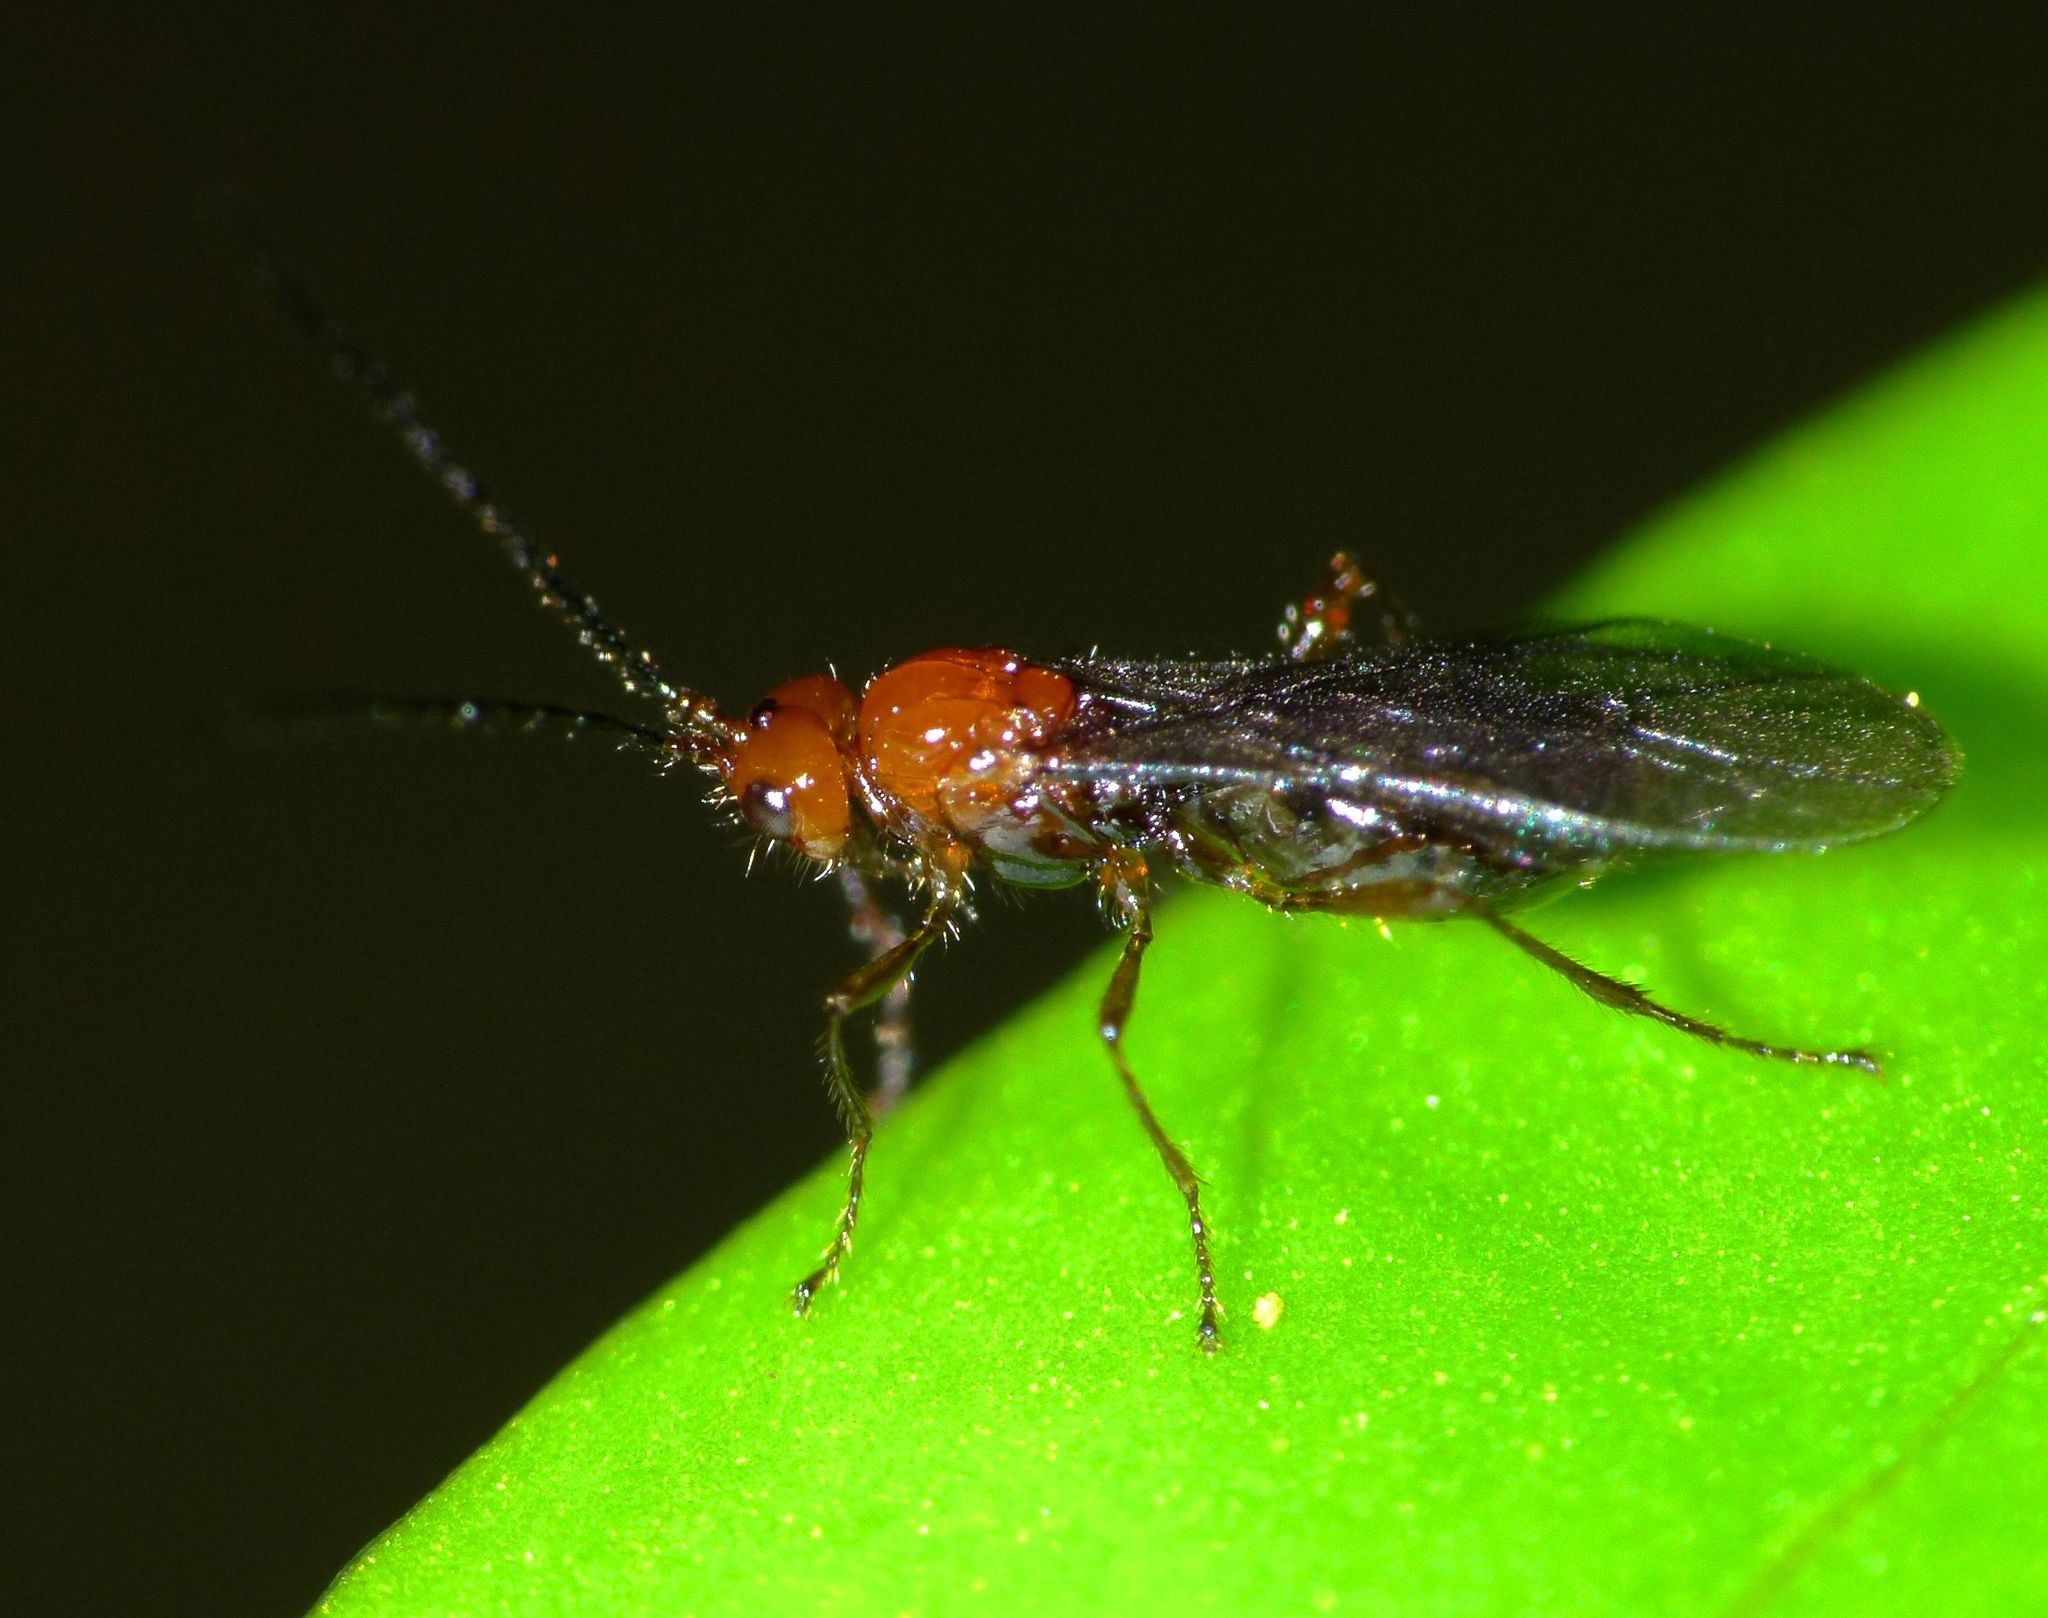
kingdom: Animalia
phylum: Arthropoda
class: Insecta
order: Hymenoptera
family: Braconidae
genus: Asobara
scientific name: Asobara antipoda
